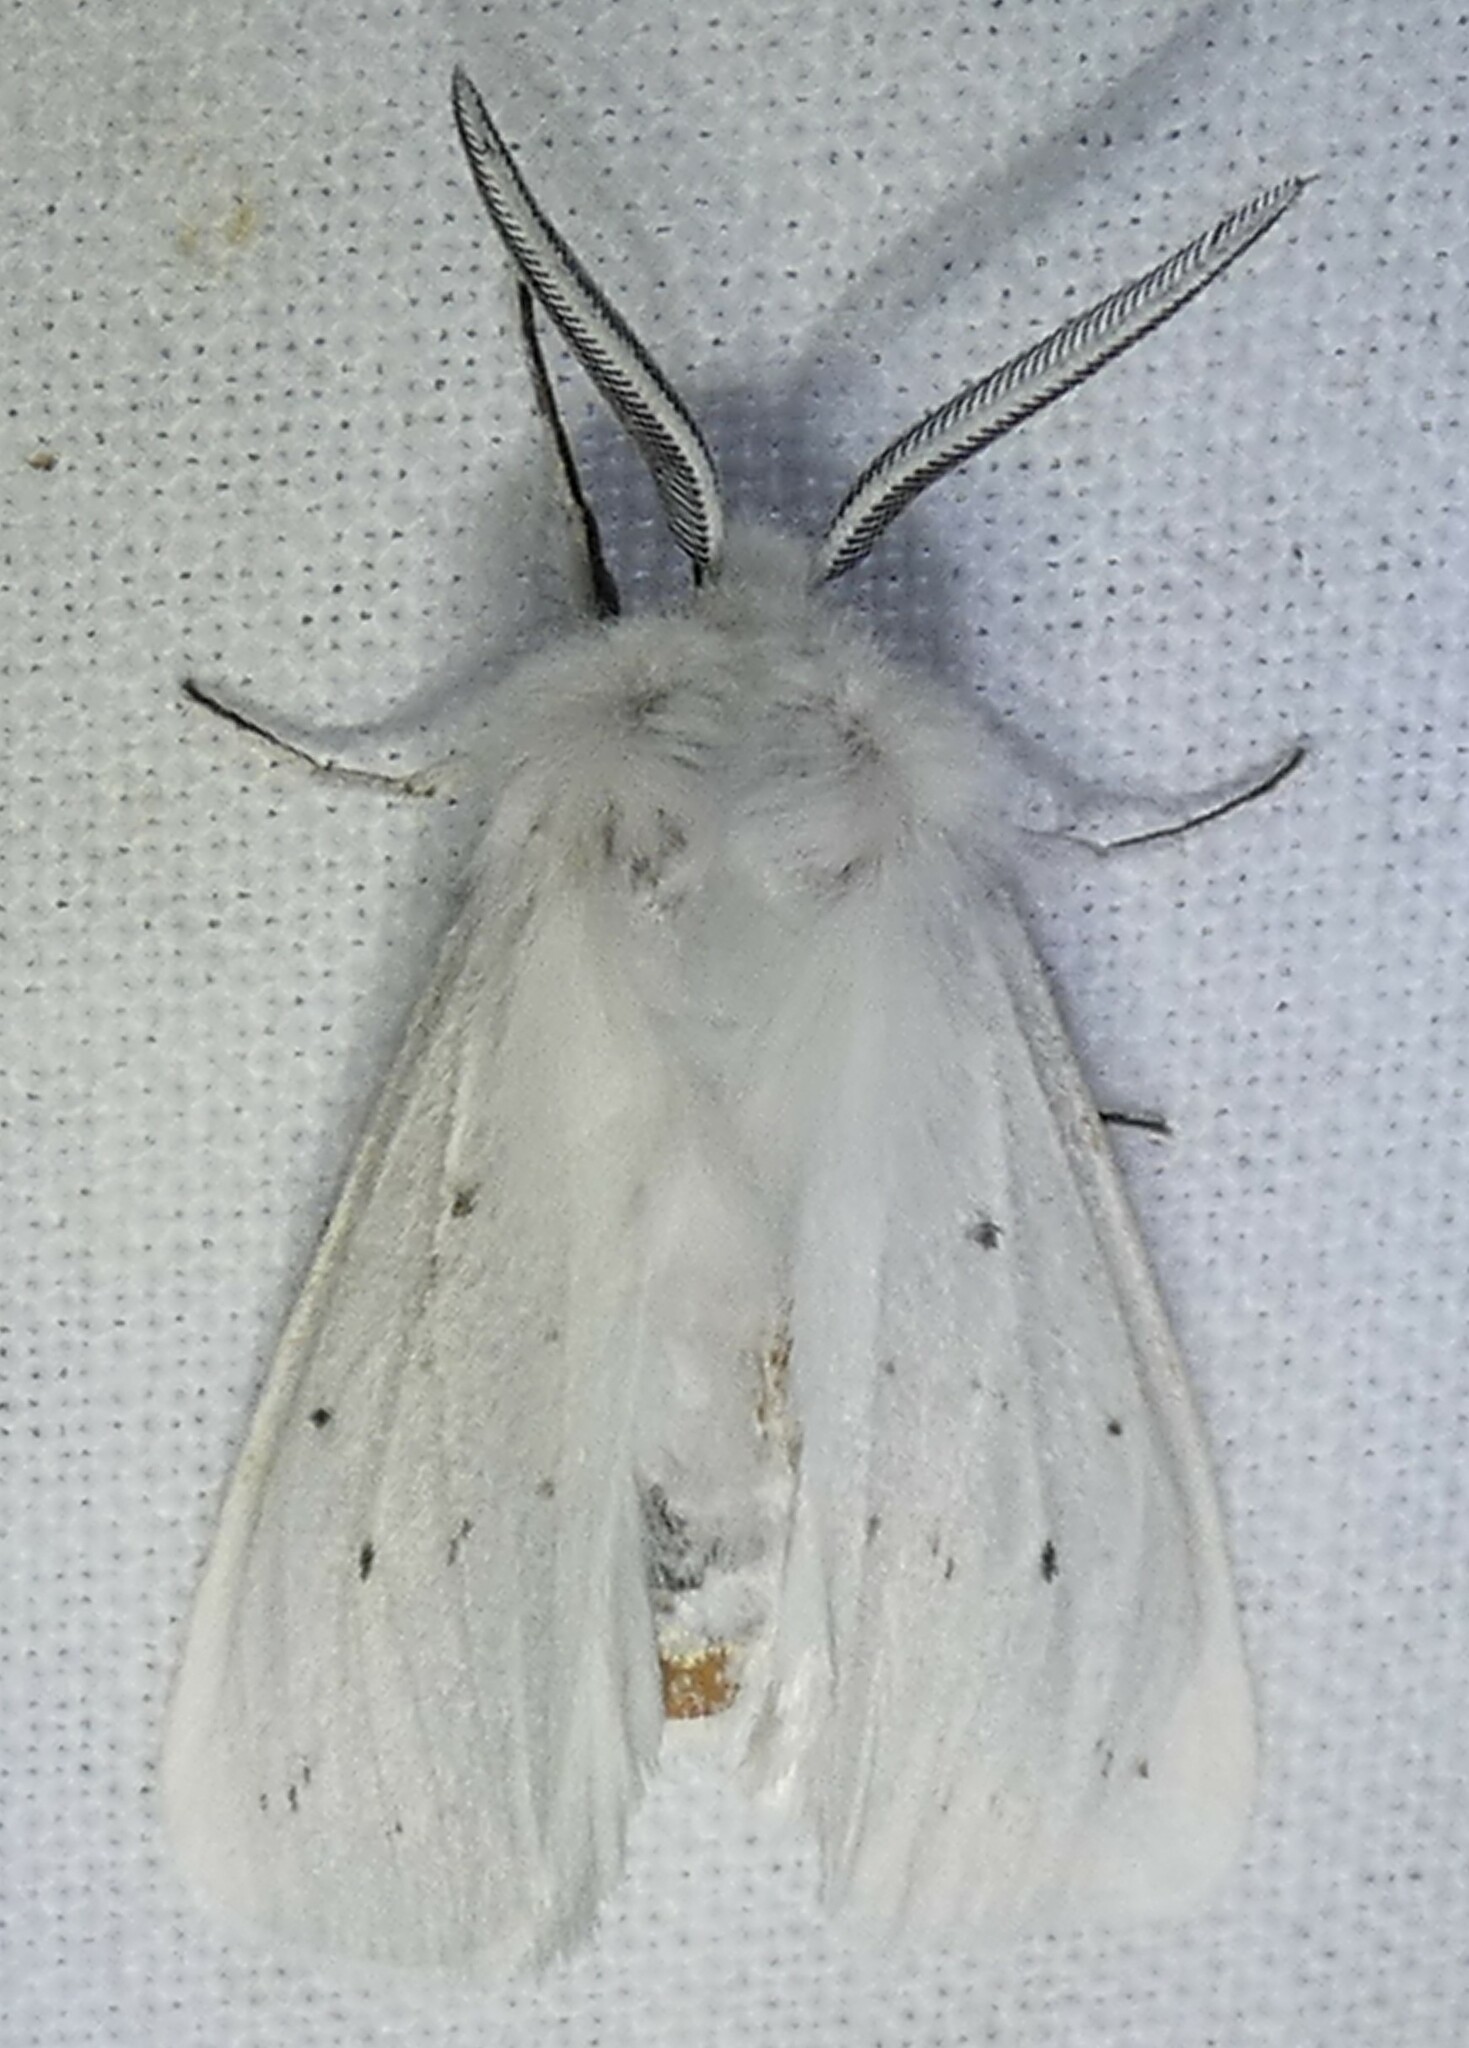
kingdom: Animalia
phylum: Arthropoda
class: Insecta
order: Lepidoptera
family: Erebidae
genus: Spilosoma
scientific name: Spilosoma congrua
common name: Agreeable tiger moth
